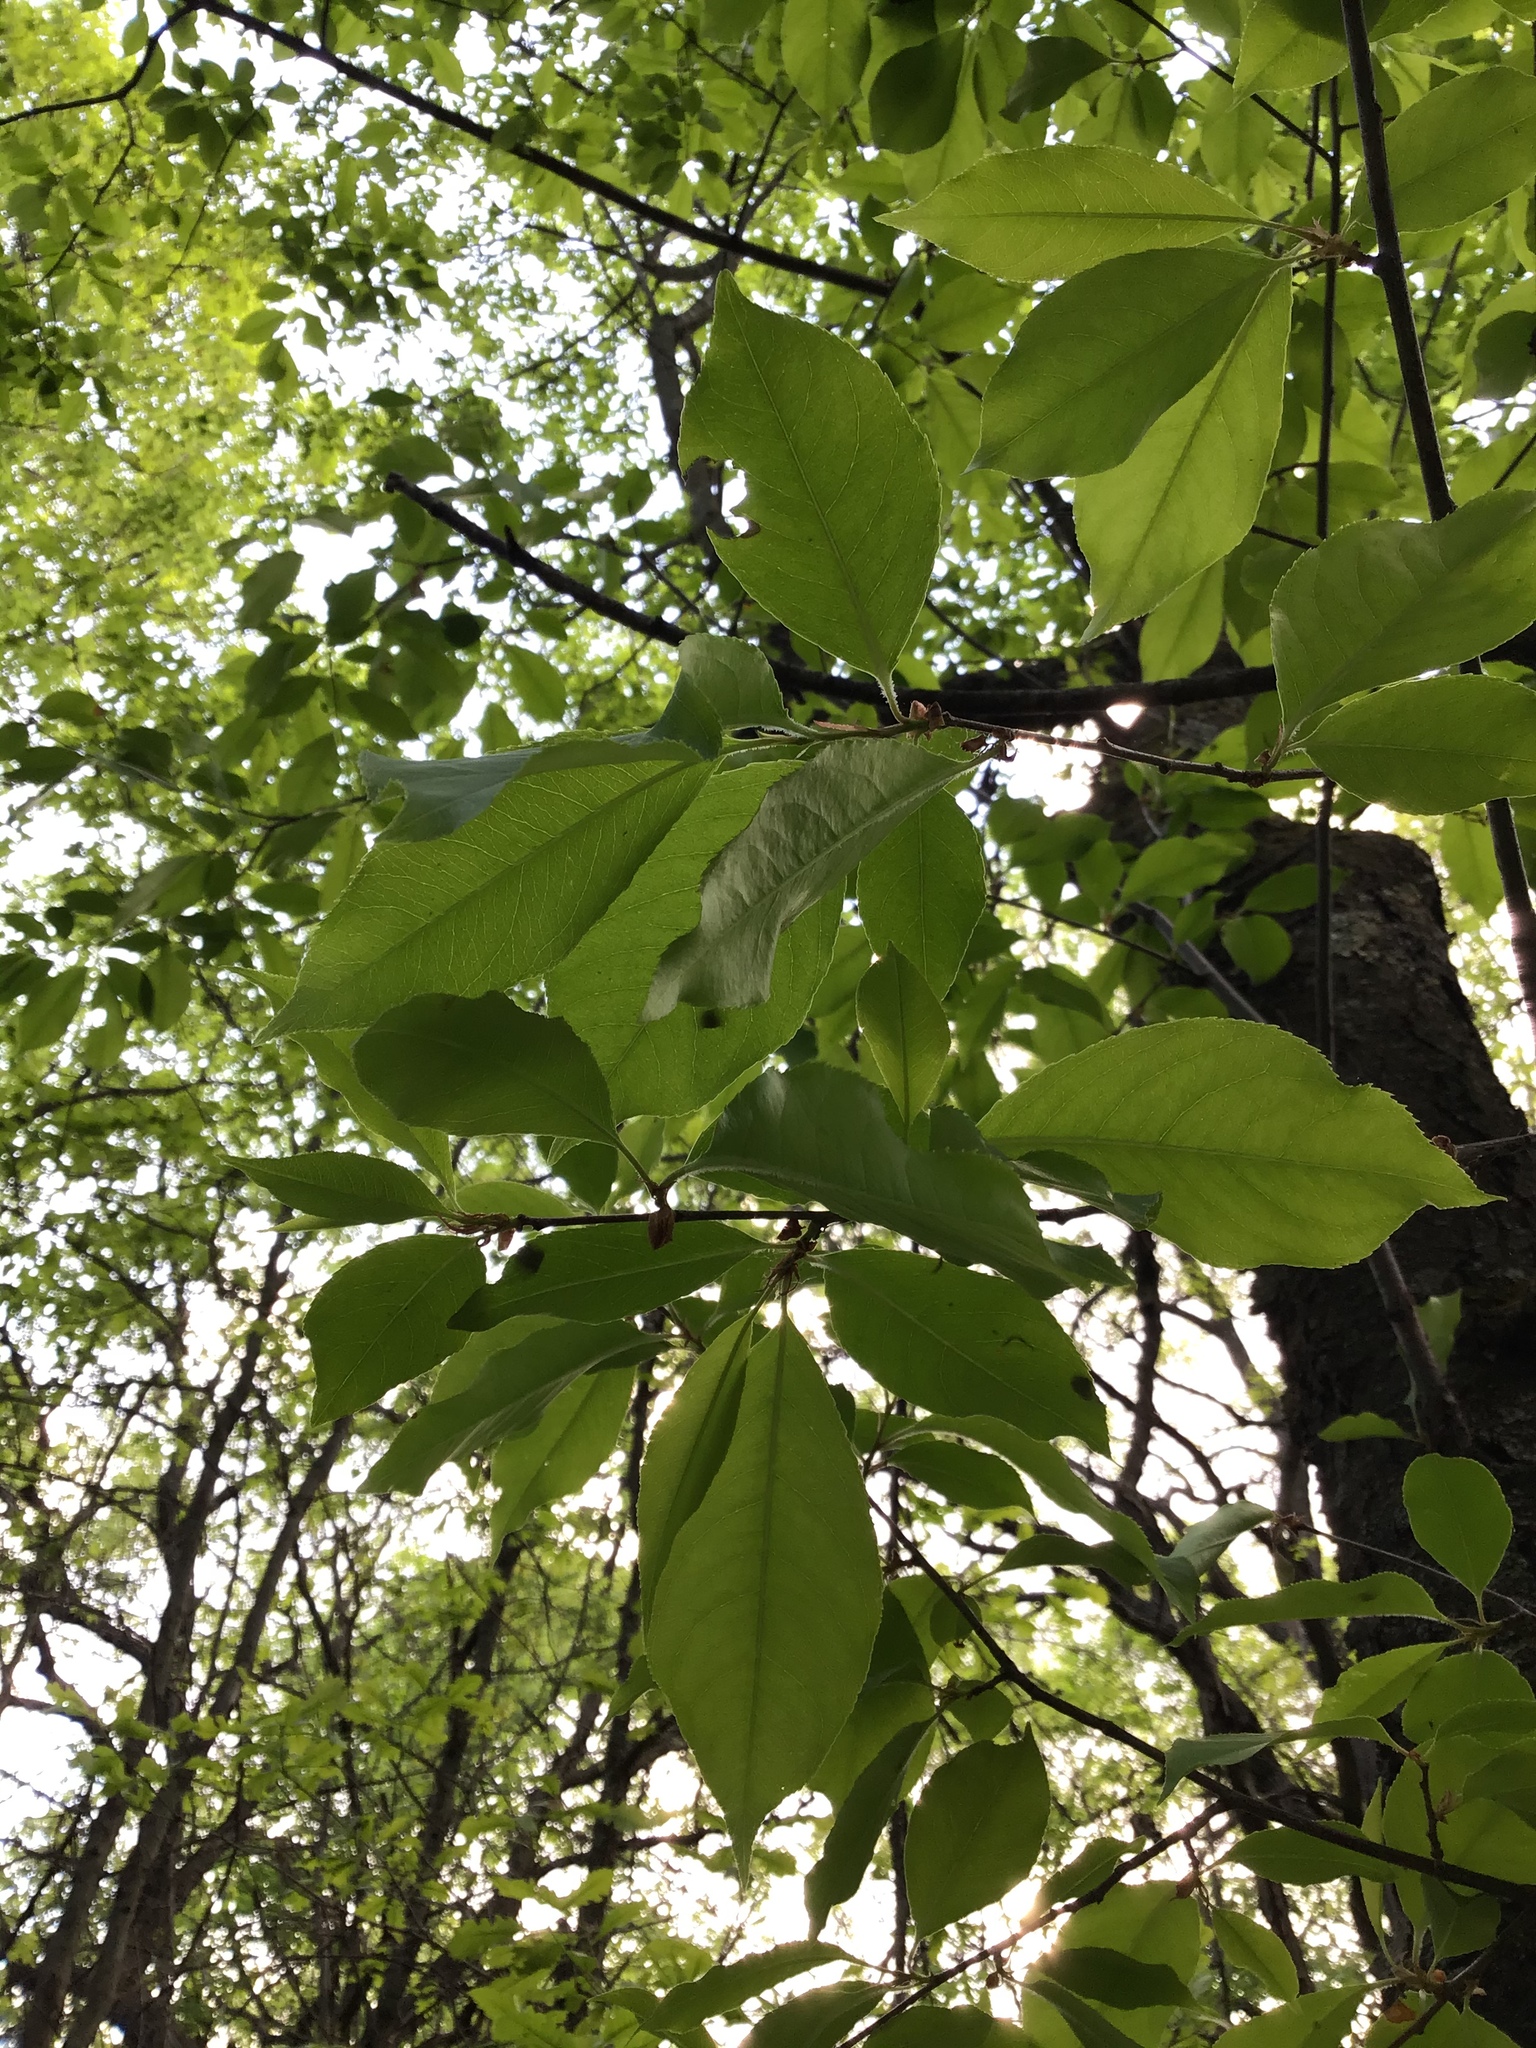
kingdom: Plantae
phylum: Tracheophyta
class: Magnoliopsida
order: Rosales
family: Rosaceae
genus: Prunus
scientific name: Prunus serotina
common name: Black cherry
